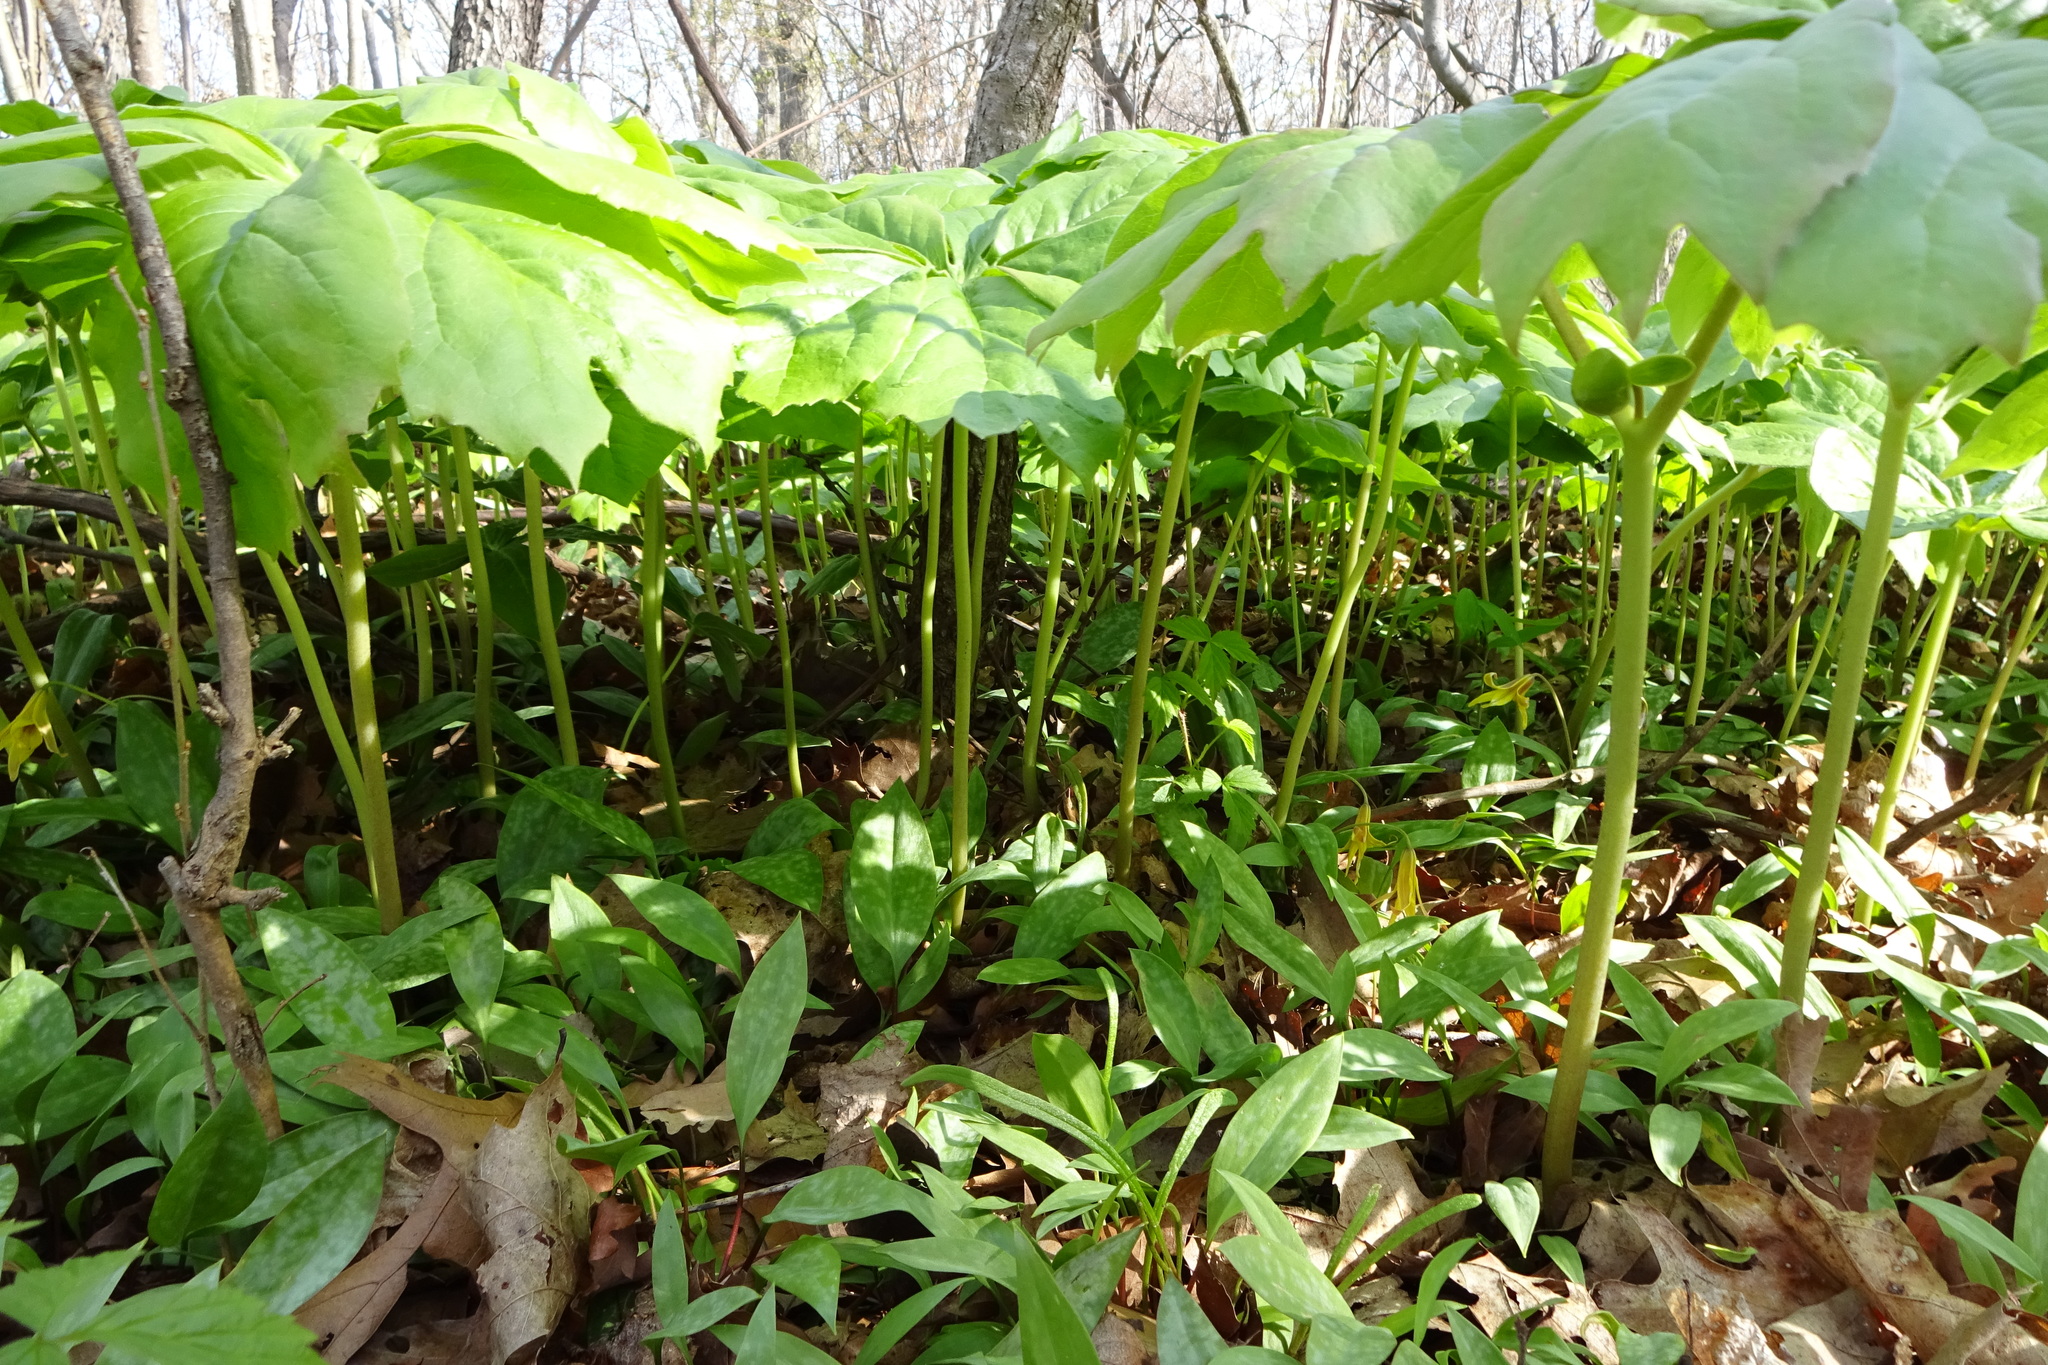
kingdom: Plantae
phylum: Tracheophyta
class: Magnoliopsida
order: Ranunculales
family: Berberidaceae
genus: Podophyllum
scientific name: Podophyllum peltatum
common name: Wild mandrake
